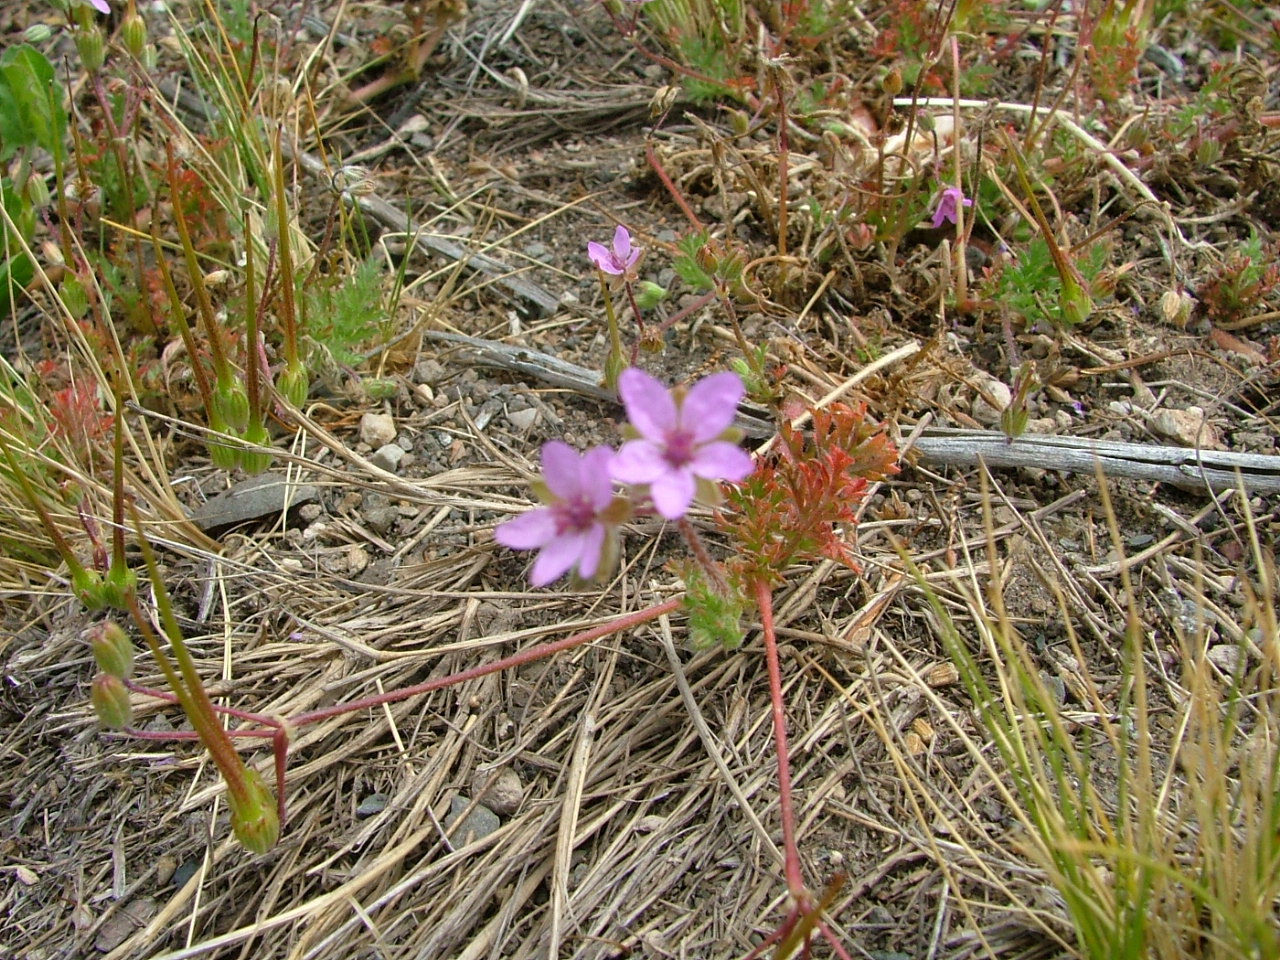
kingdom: Plantae
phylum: Tracheophyta
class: Magnoliopsida
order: Geraniales
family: Geraniaceae
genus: Erodium
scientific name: Erodium cicutarium
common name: Common stork's-bill
